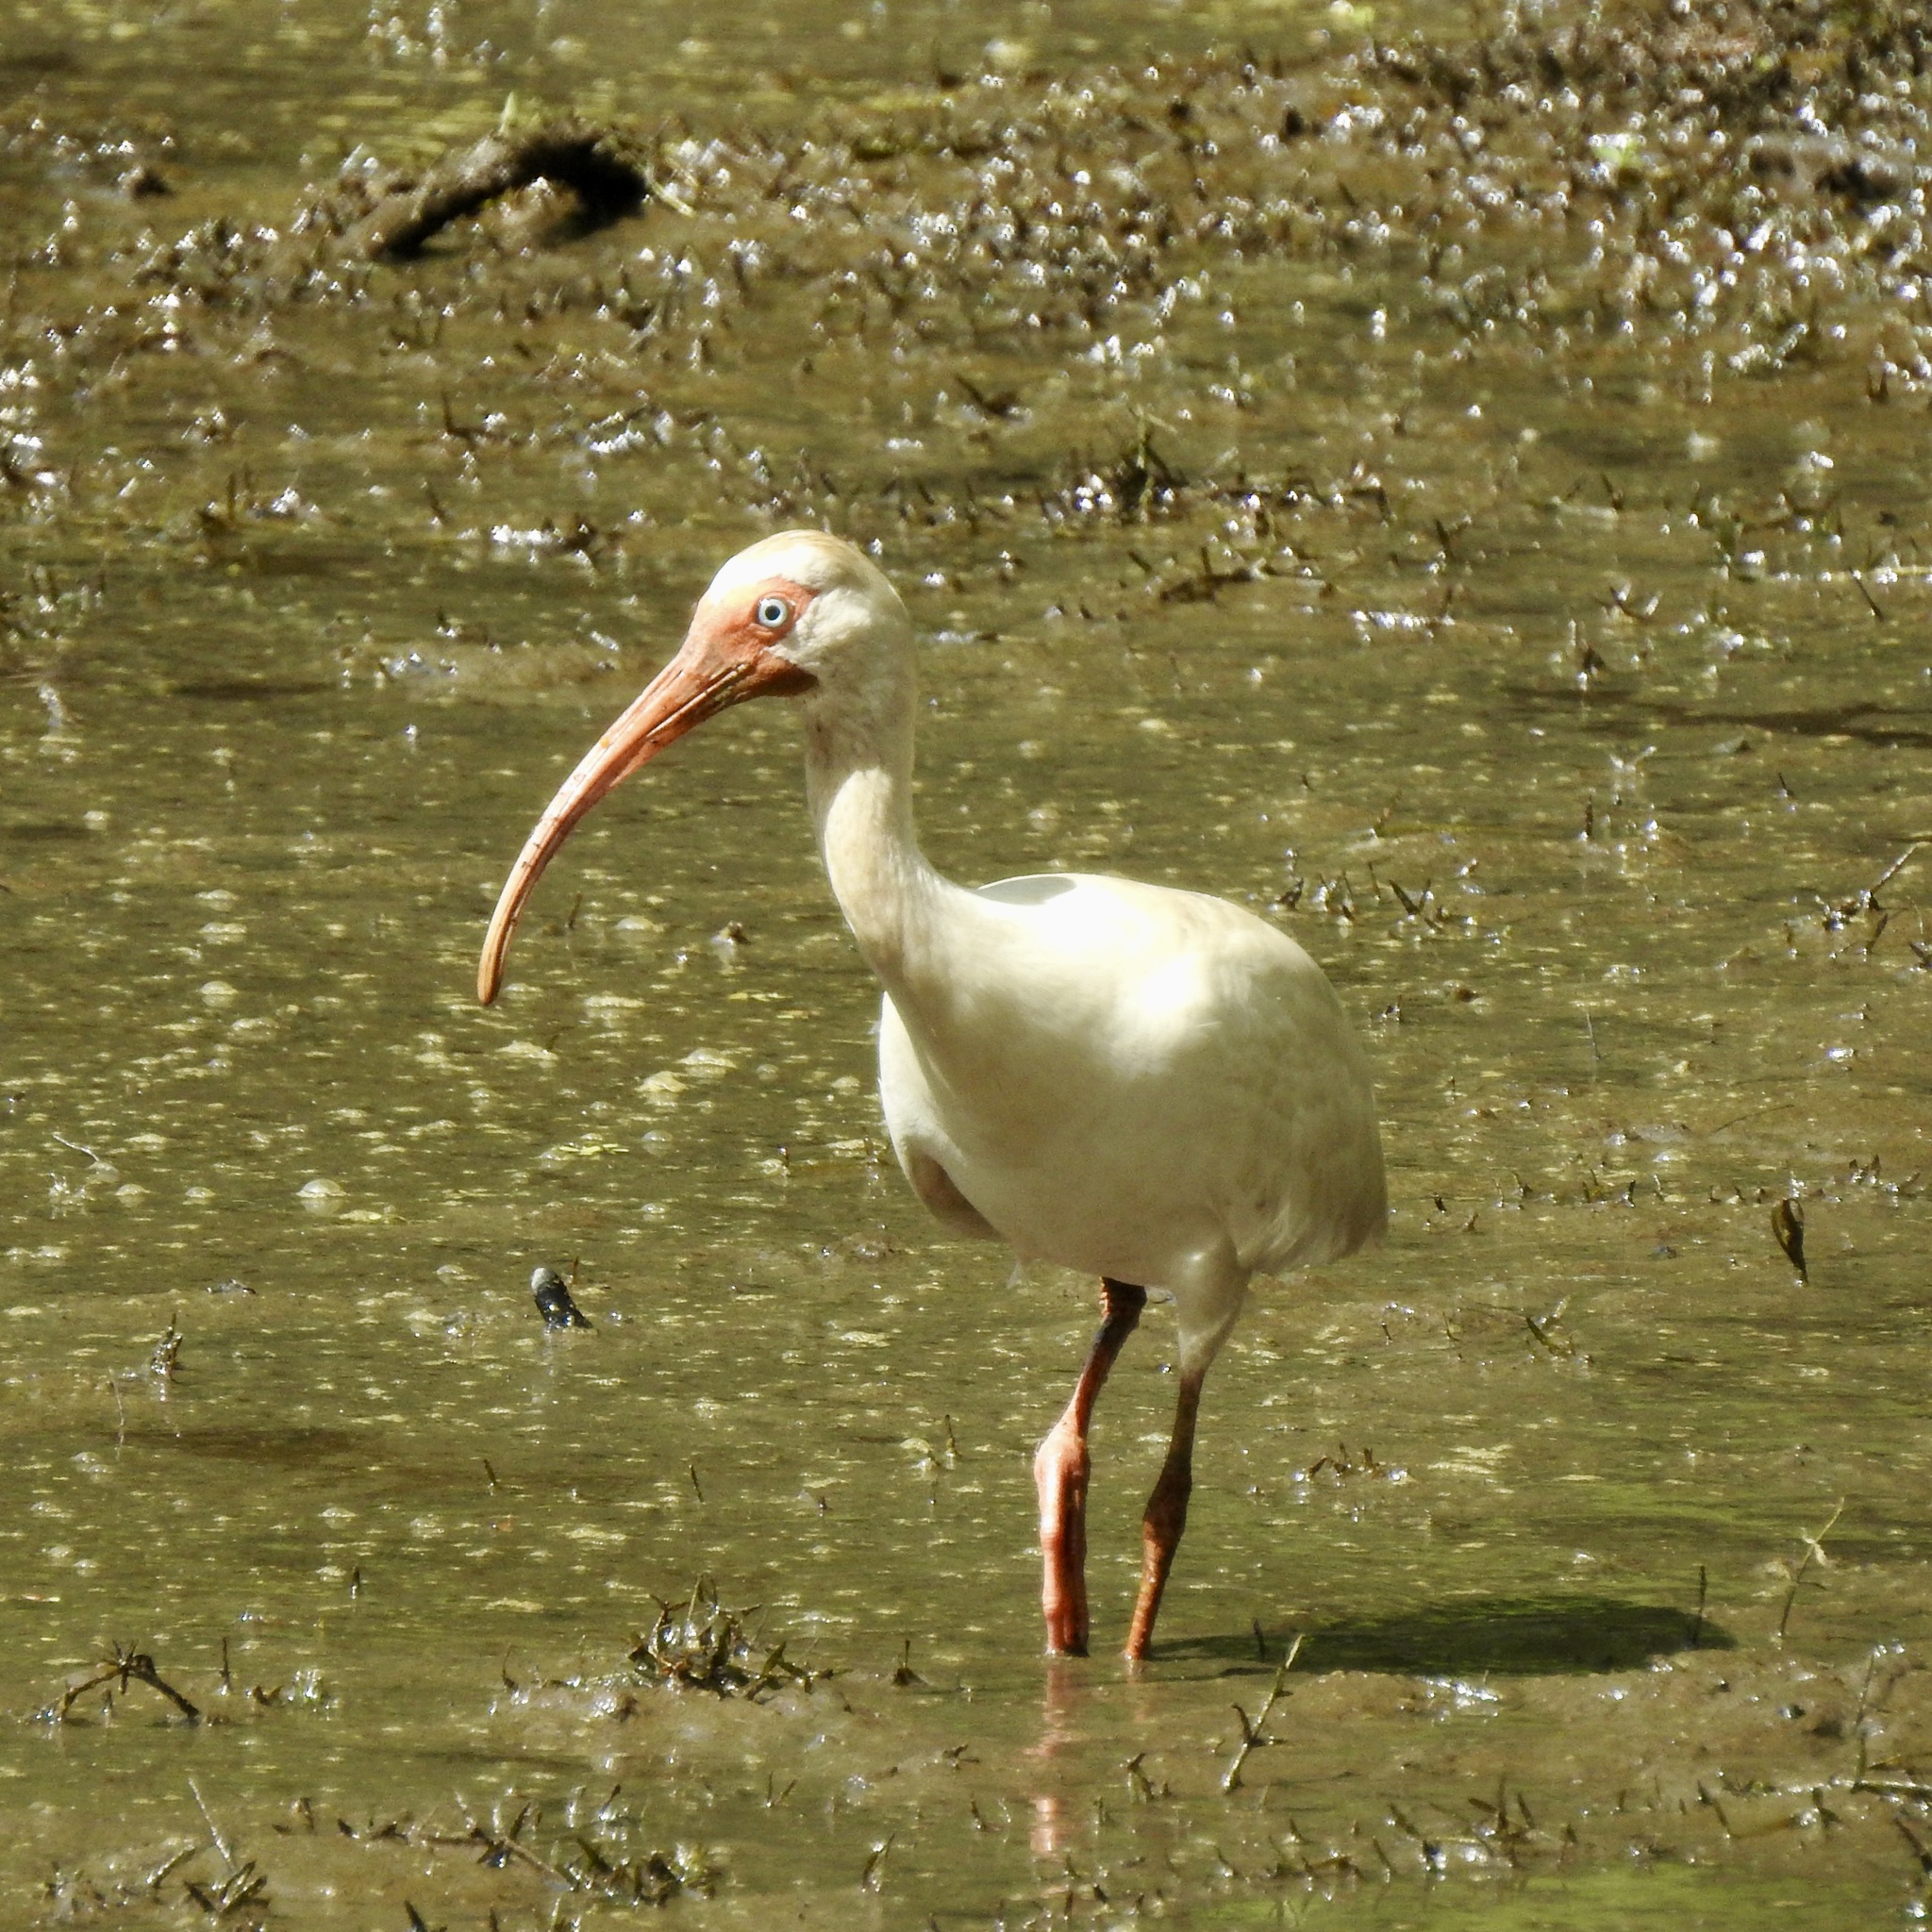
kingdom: Animalia
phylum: Chordata
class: Aves
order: Pelecaniformes
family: Threskiornithidae
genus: Eudocimus
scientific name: Eudocimus albus
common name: White ibis
